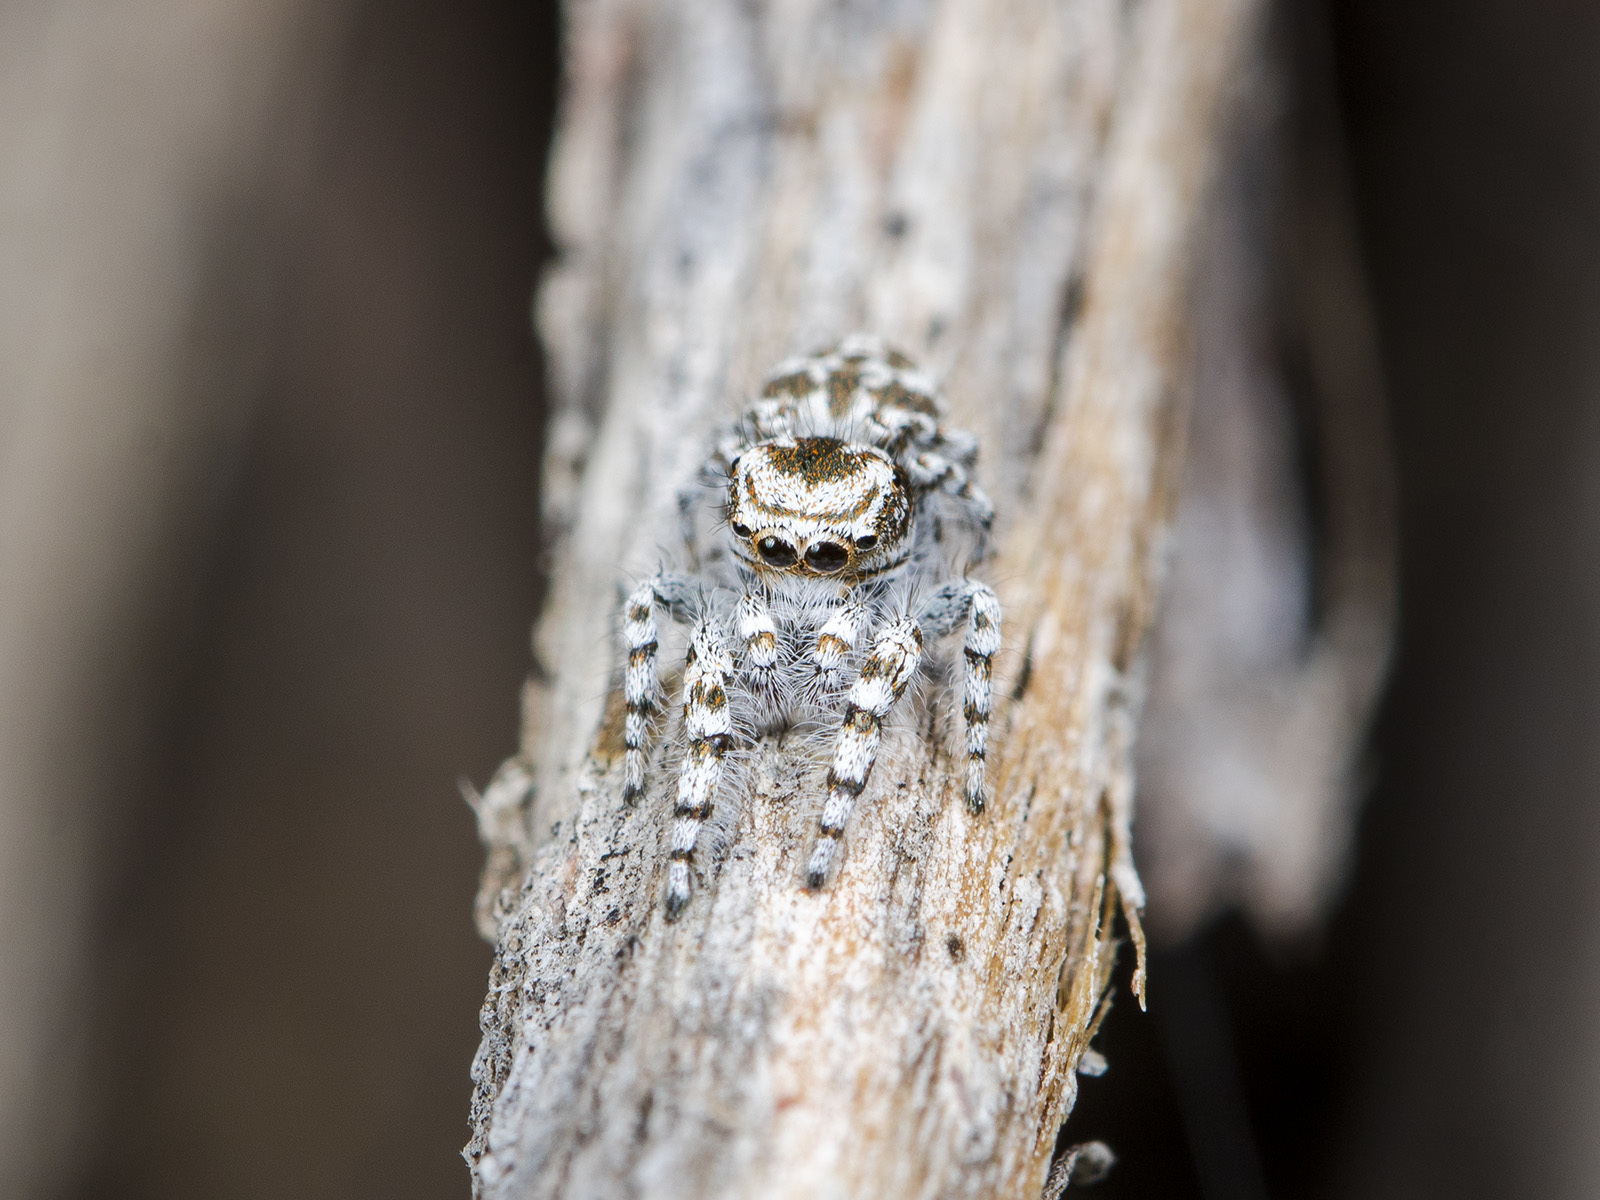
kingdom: Animalia
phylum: Arthropoda
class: Arachnida
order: Araneae
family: Salticidae
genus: Pseudomogrus
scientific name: Pseudomogrus dalaensis
